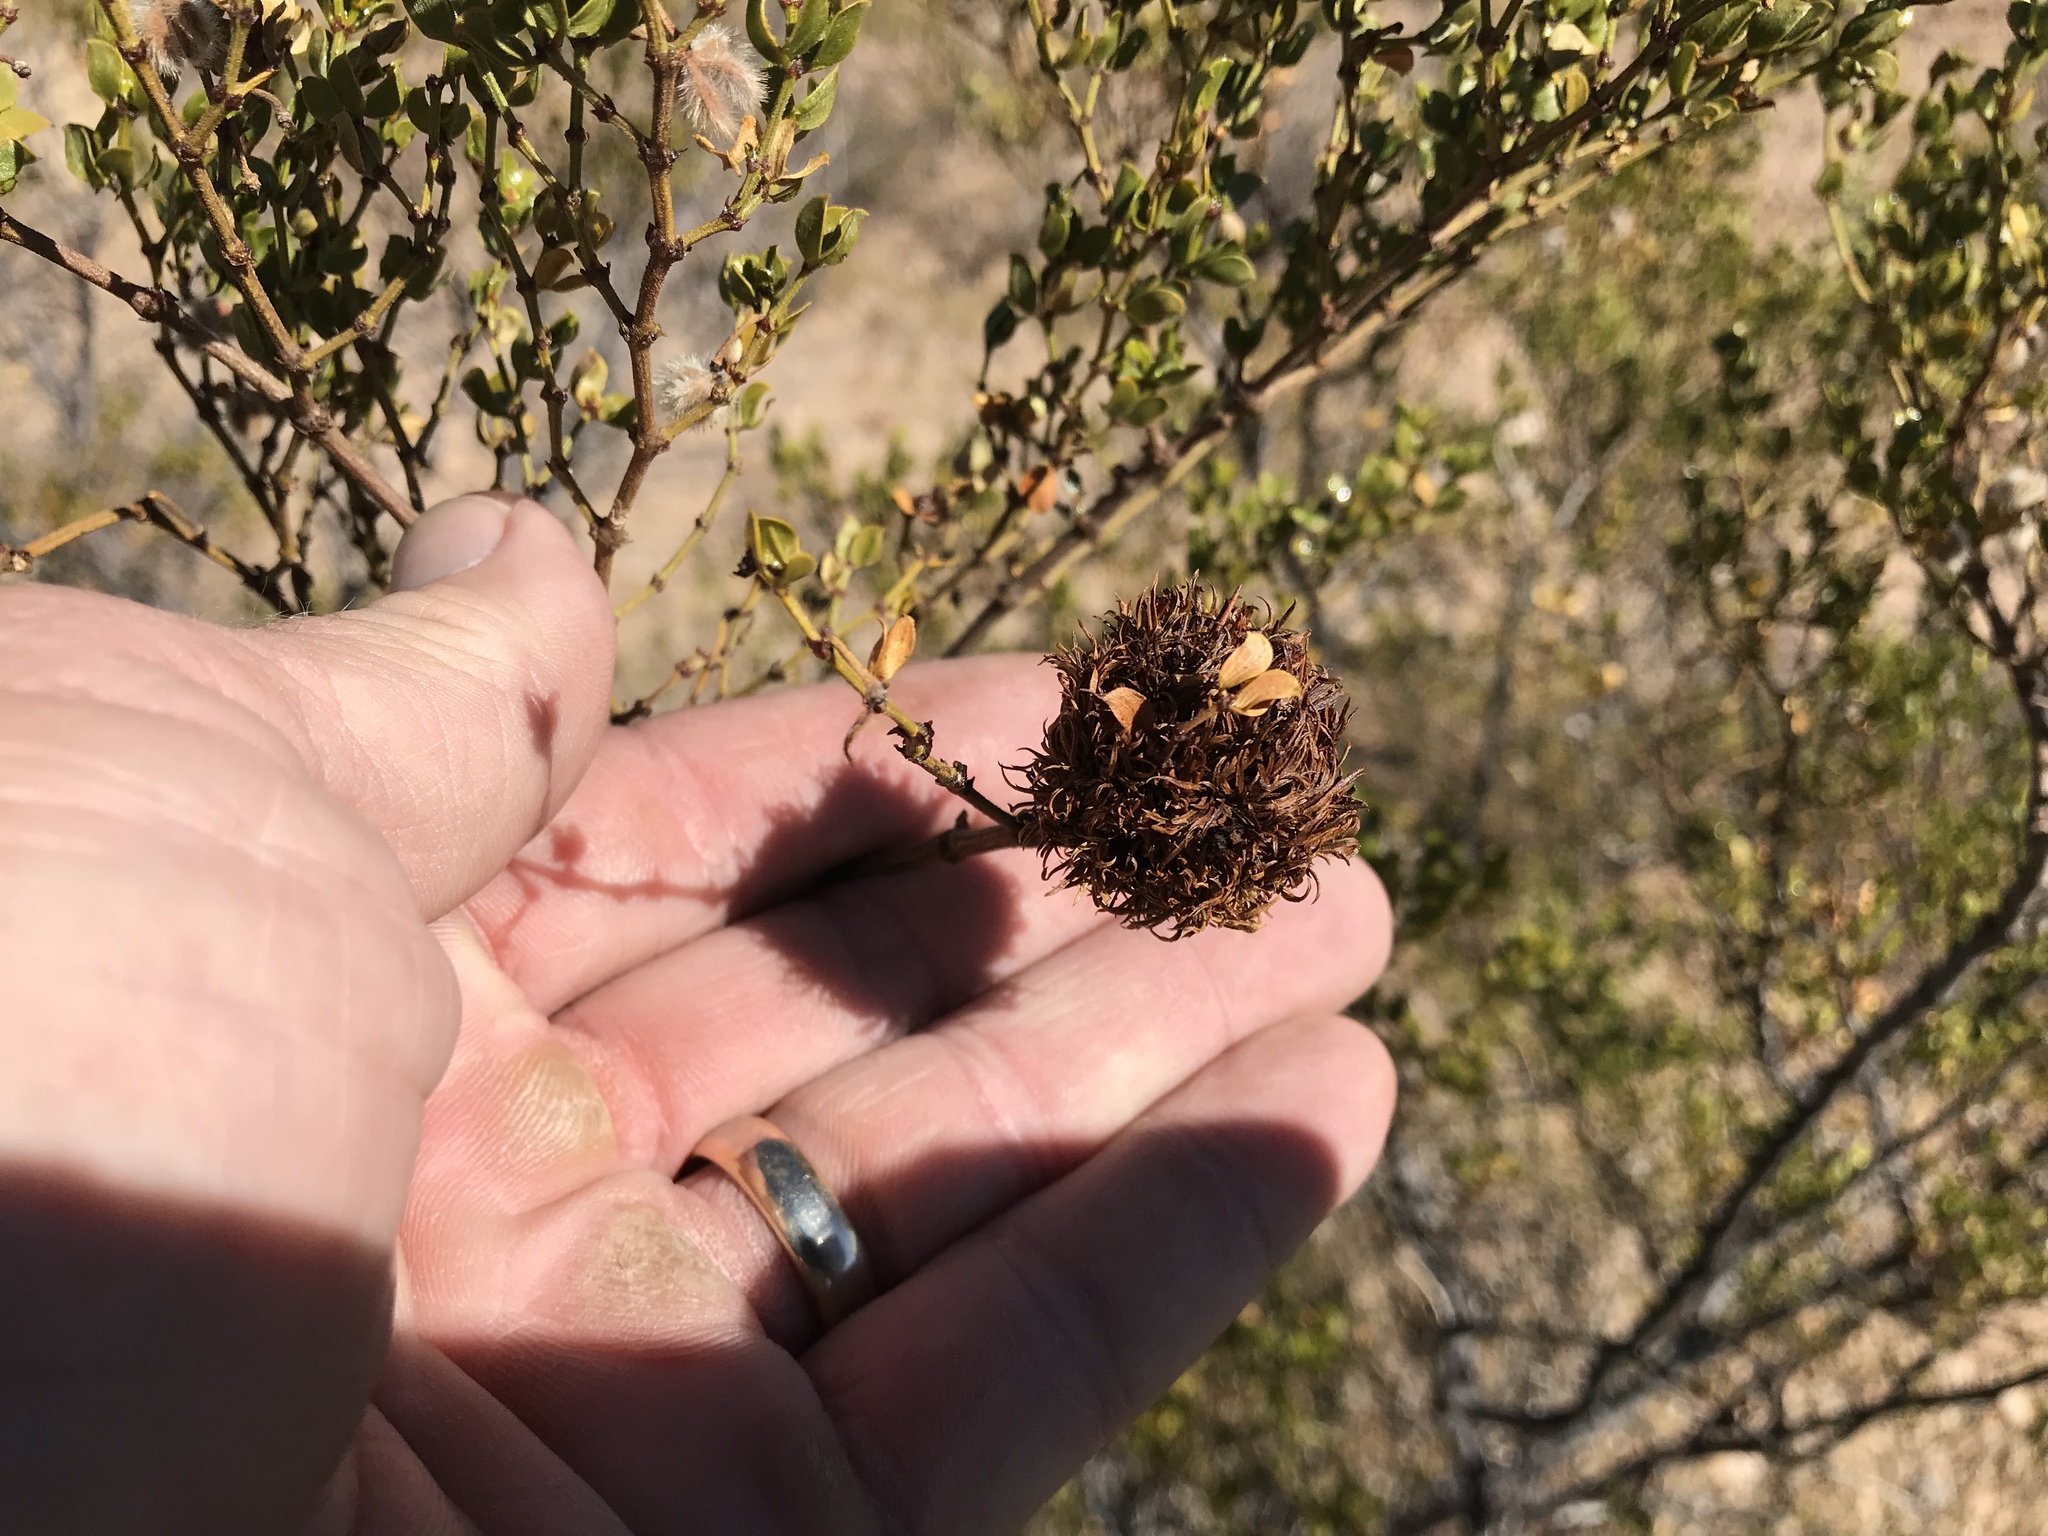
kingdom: Animalia
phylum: Arthropoda
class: Insecta
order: Diptera
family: Cecidomyiidae
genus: Asphondylia
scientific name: Asphondylia auripila
